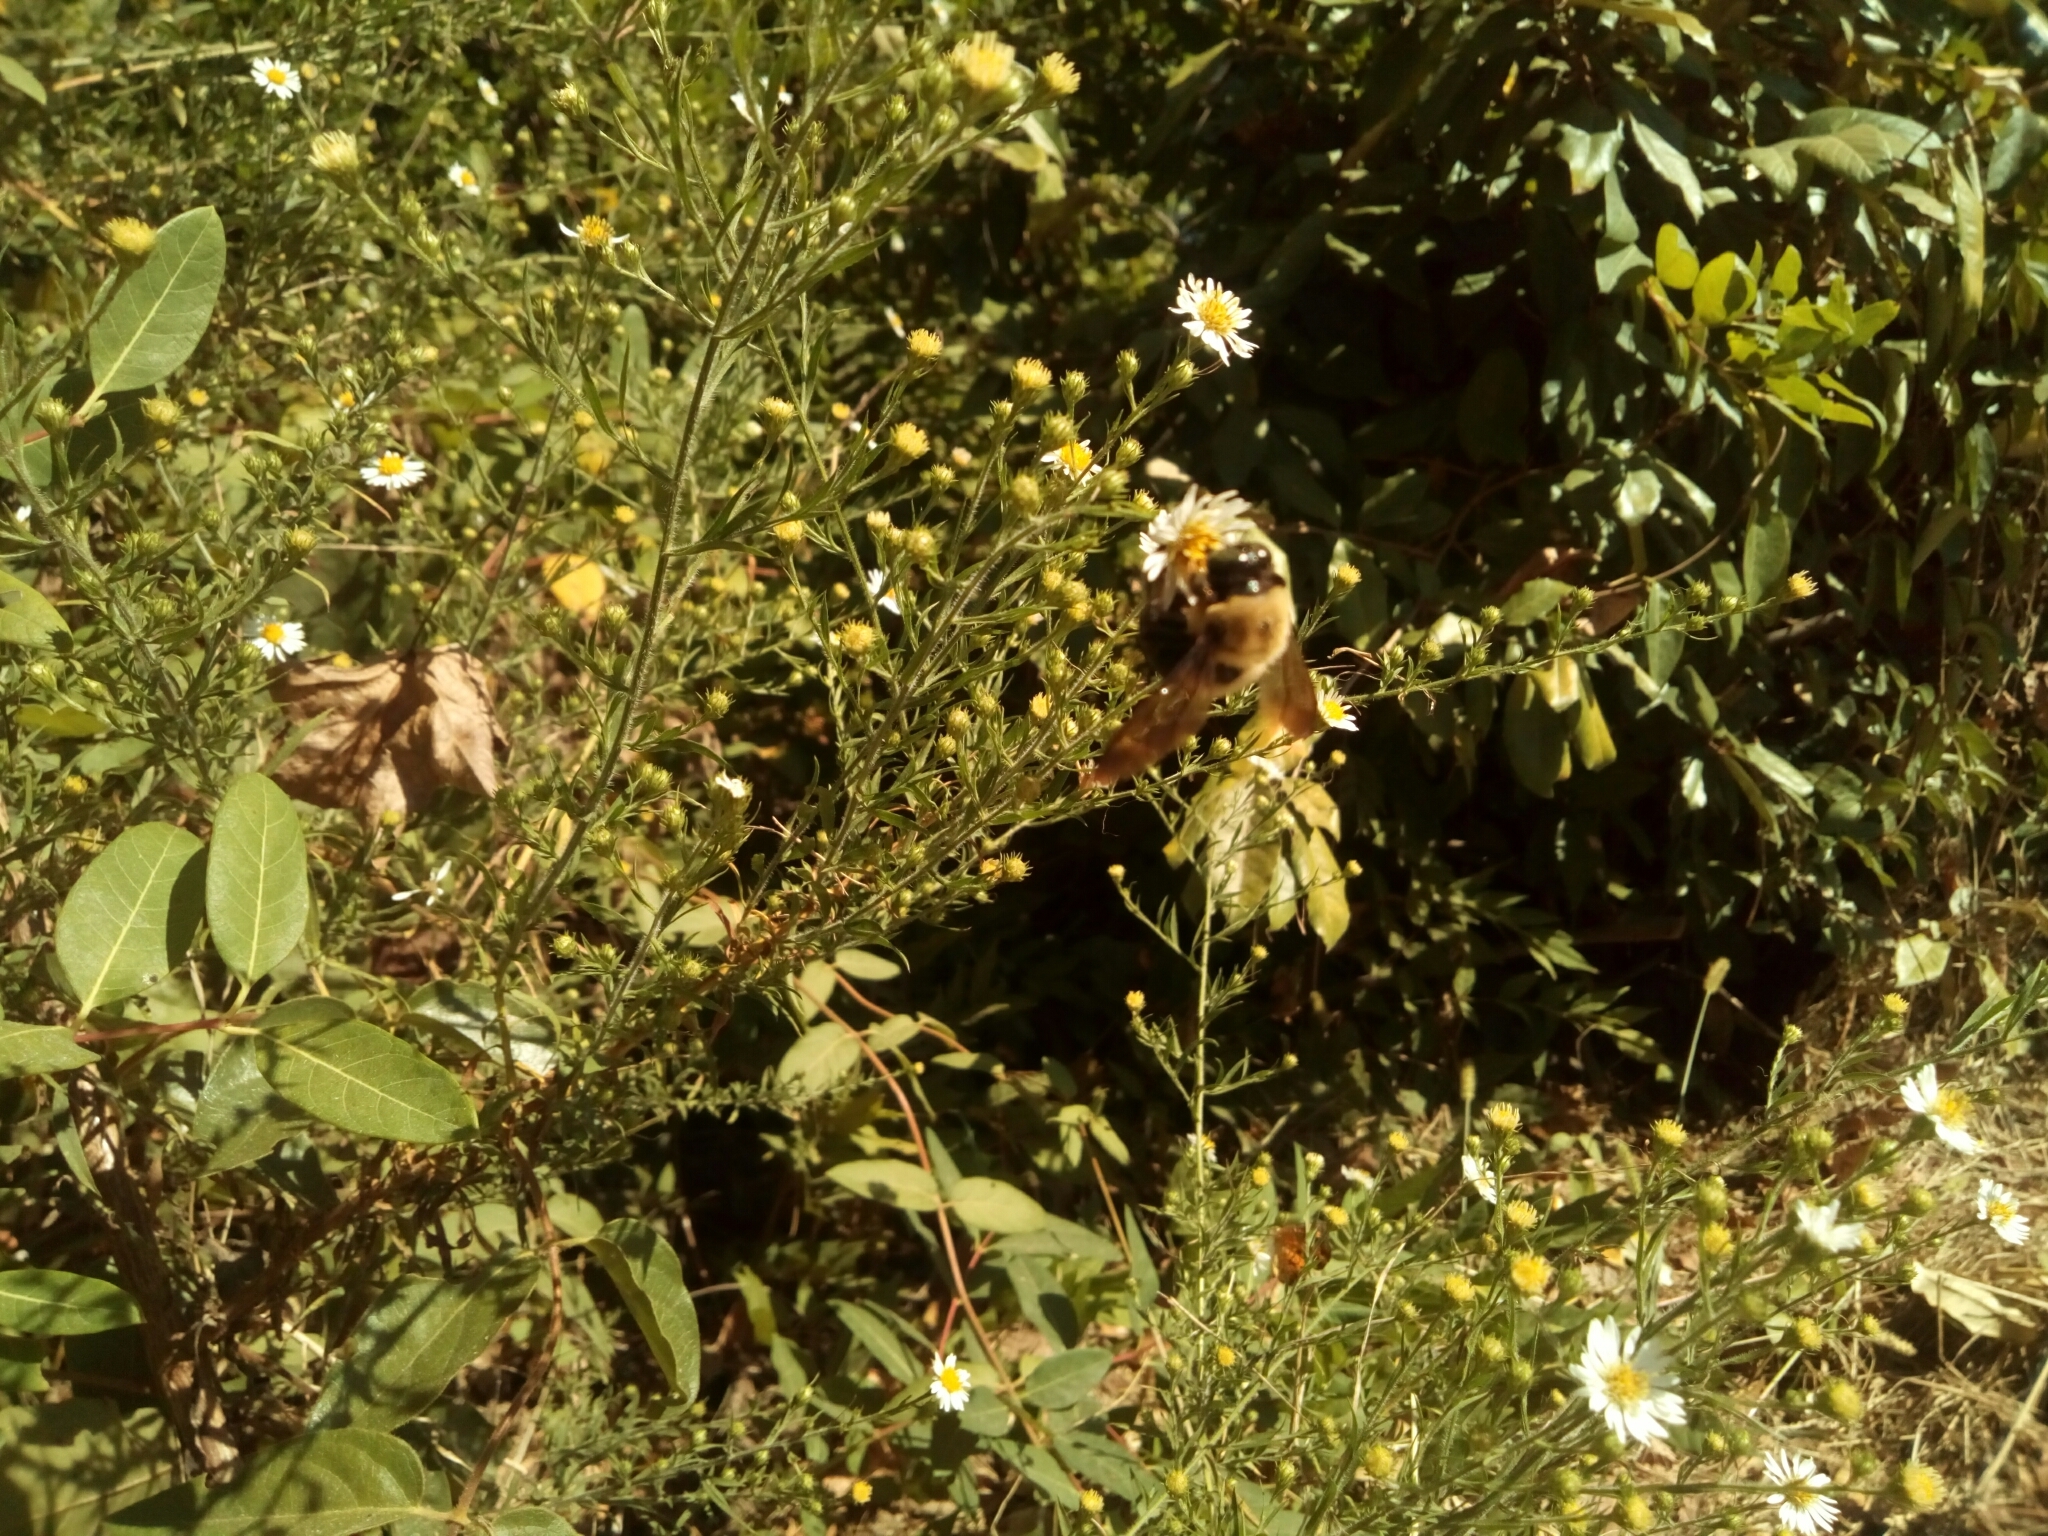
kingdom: Animalia
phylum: Arthropoda
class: Insecta
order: Hymenoptera
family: Apidae
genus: Xylocopa
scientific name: Xylocopa virginica
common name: Carpenter bee
